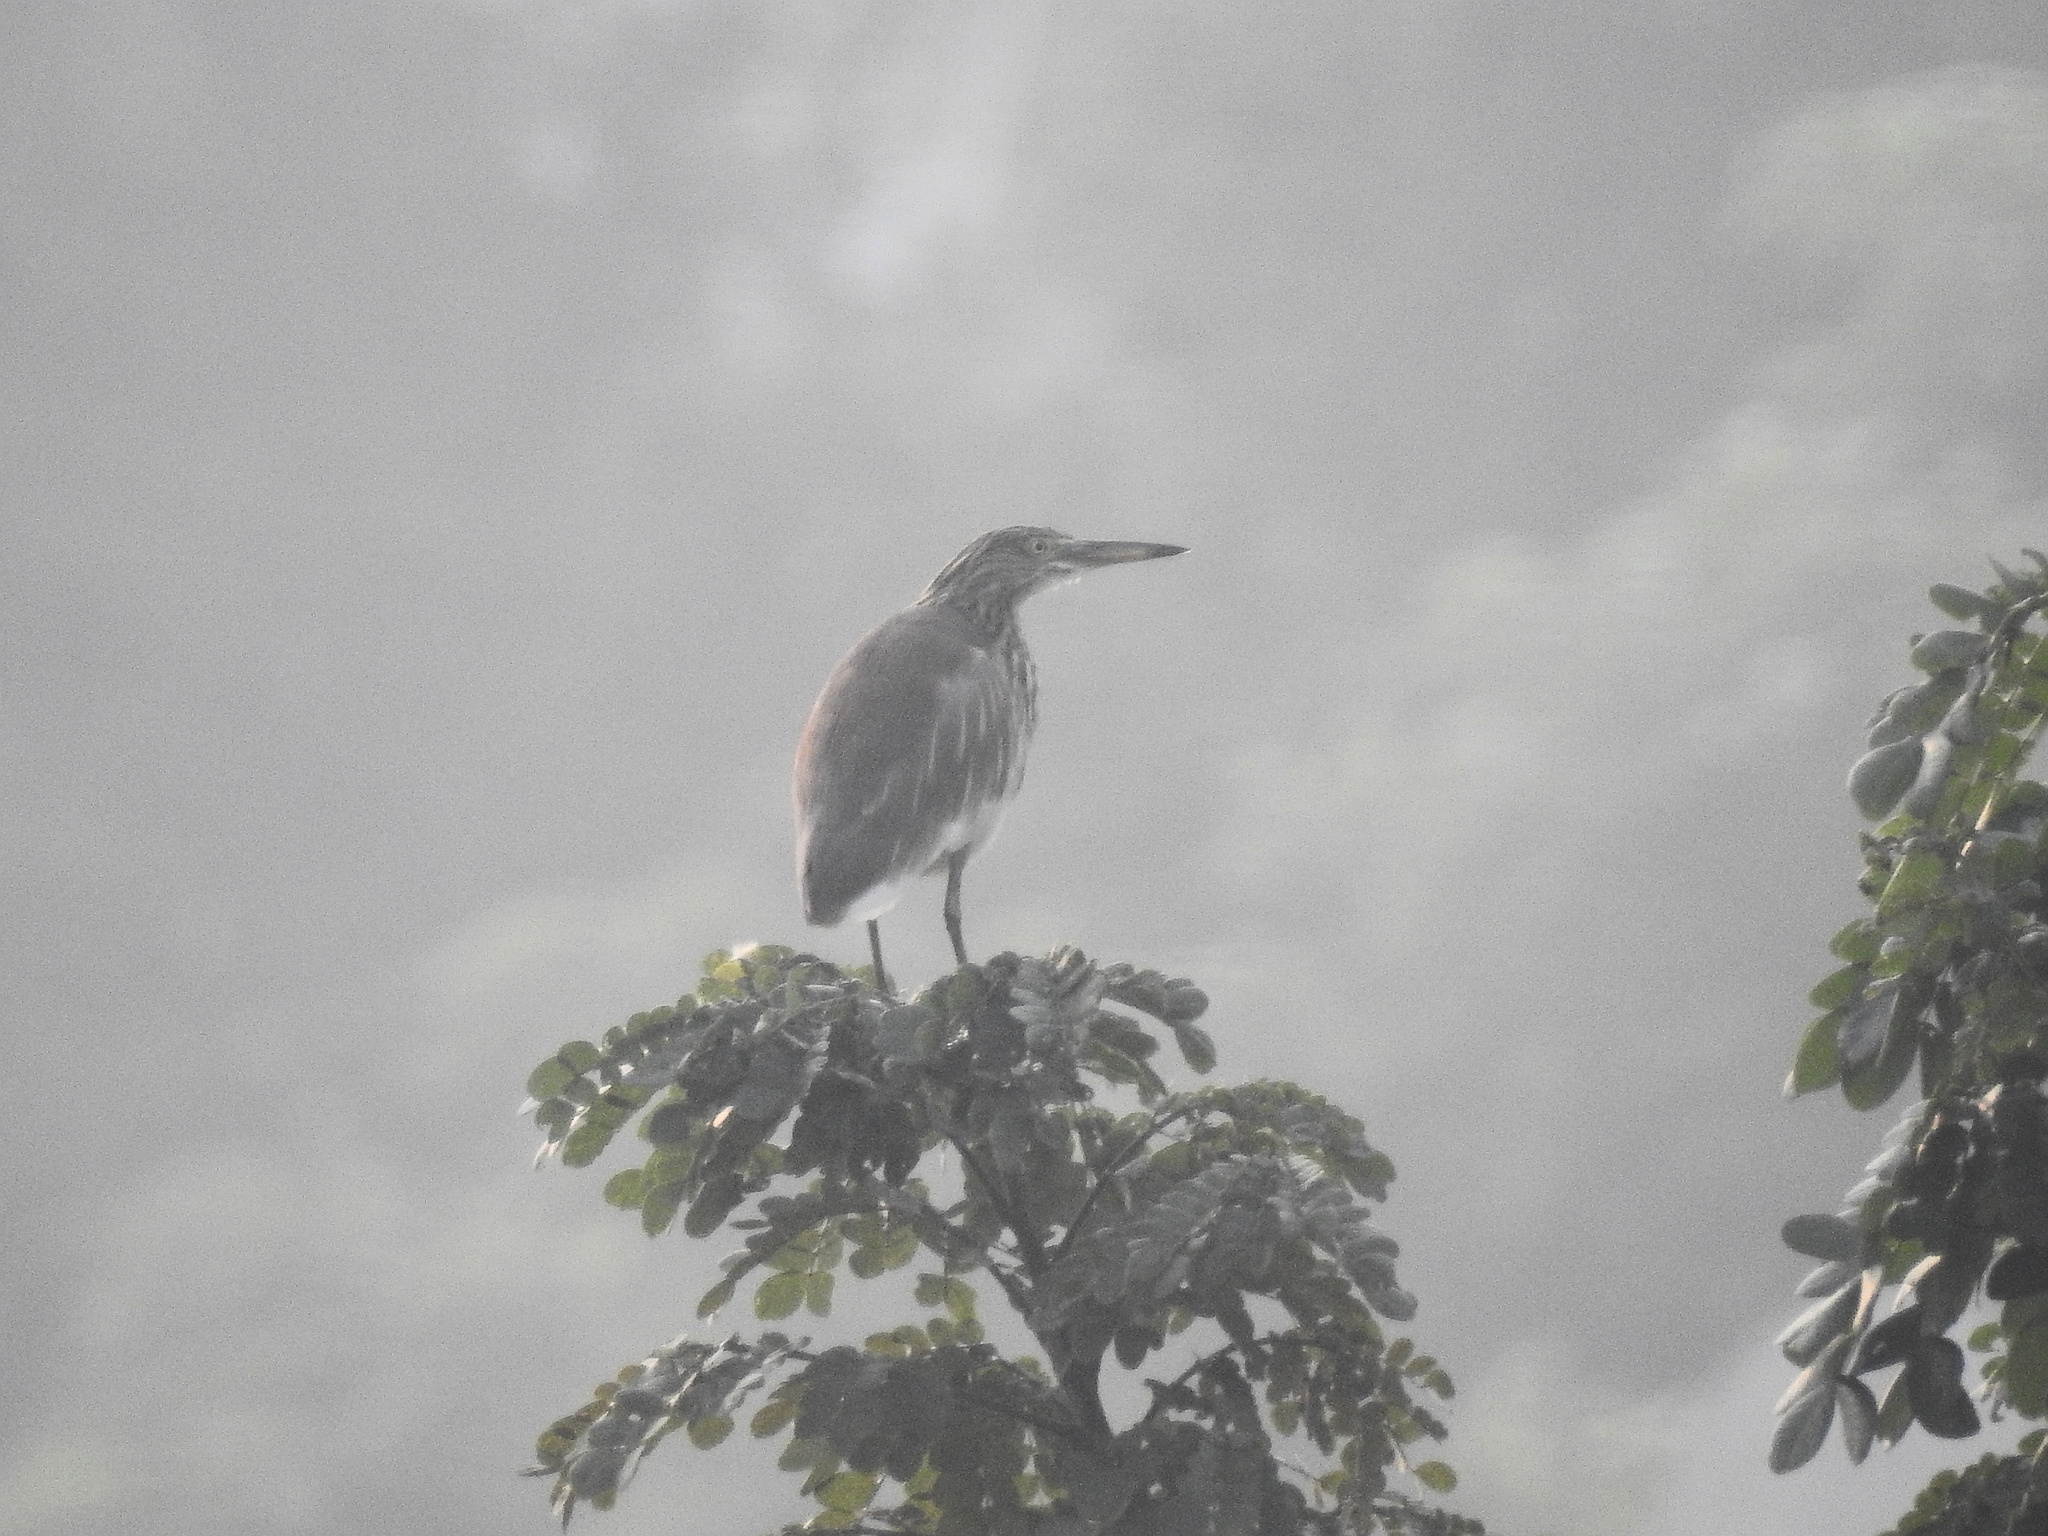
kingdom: Animalia
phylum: Chordata
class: Aves
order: Pelecaniformes
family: Ardeidae
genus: Ardeola
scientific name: Ardeola grayii
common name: Indian pond heron
